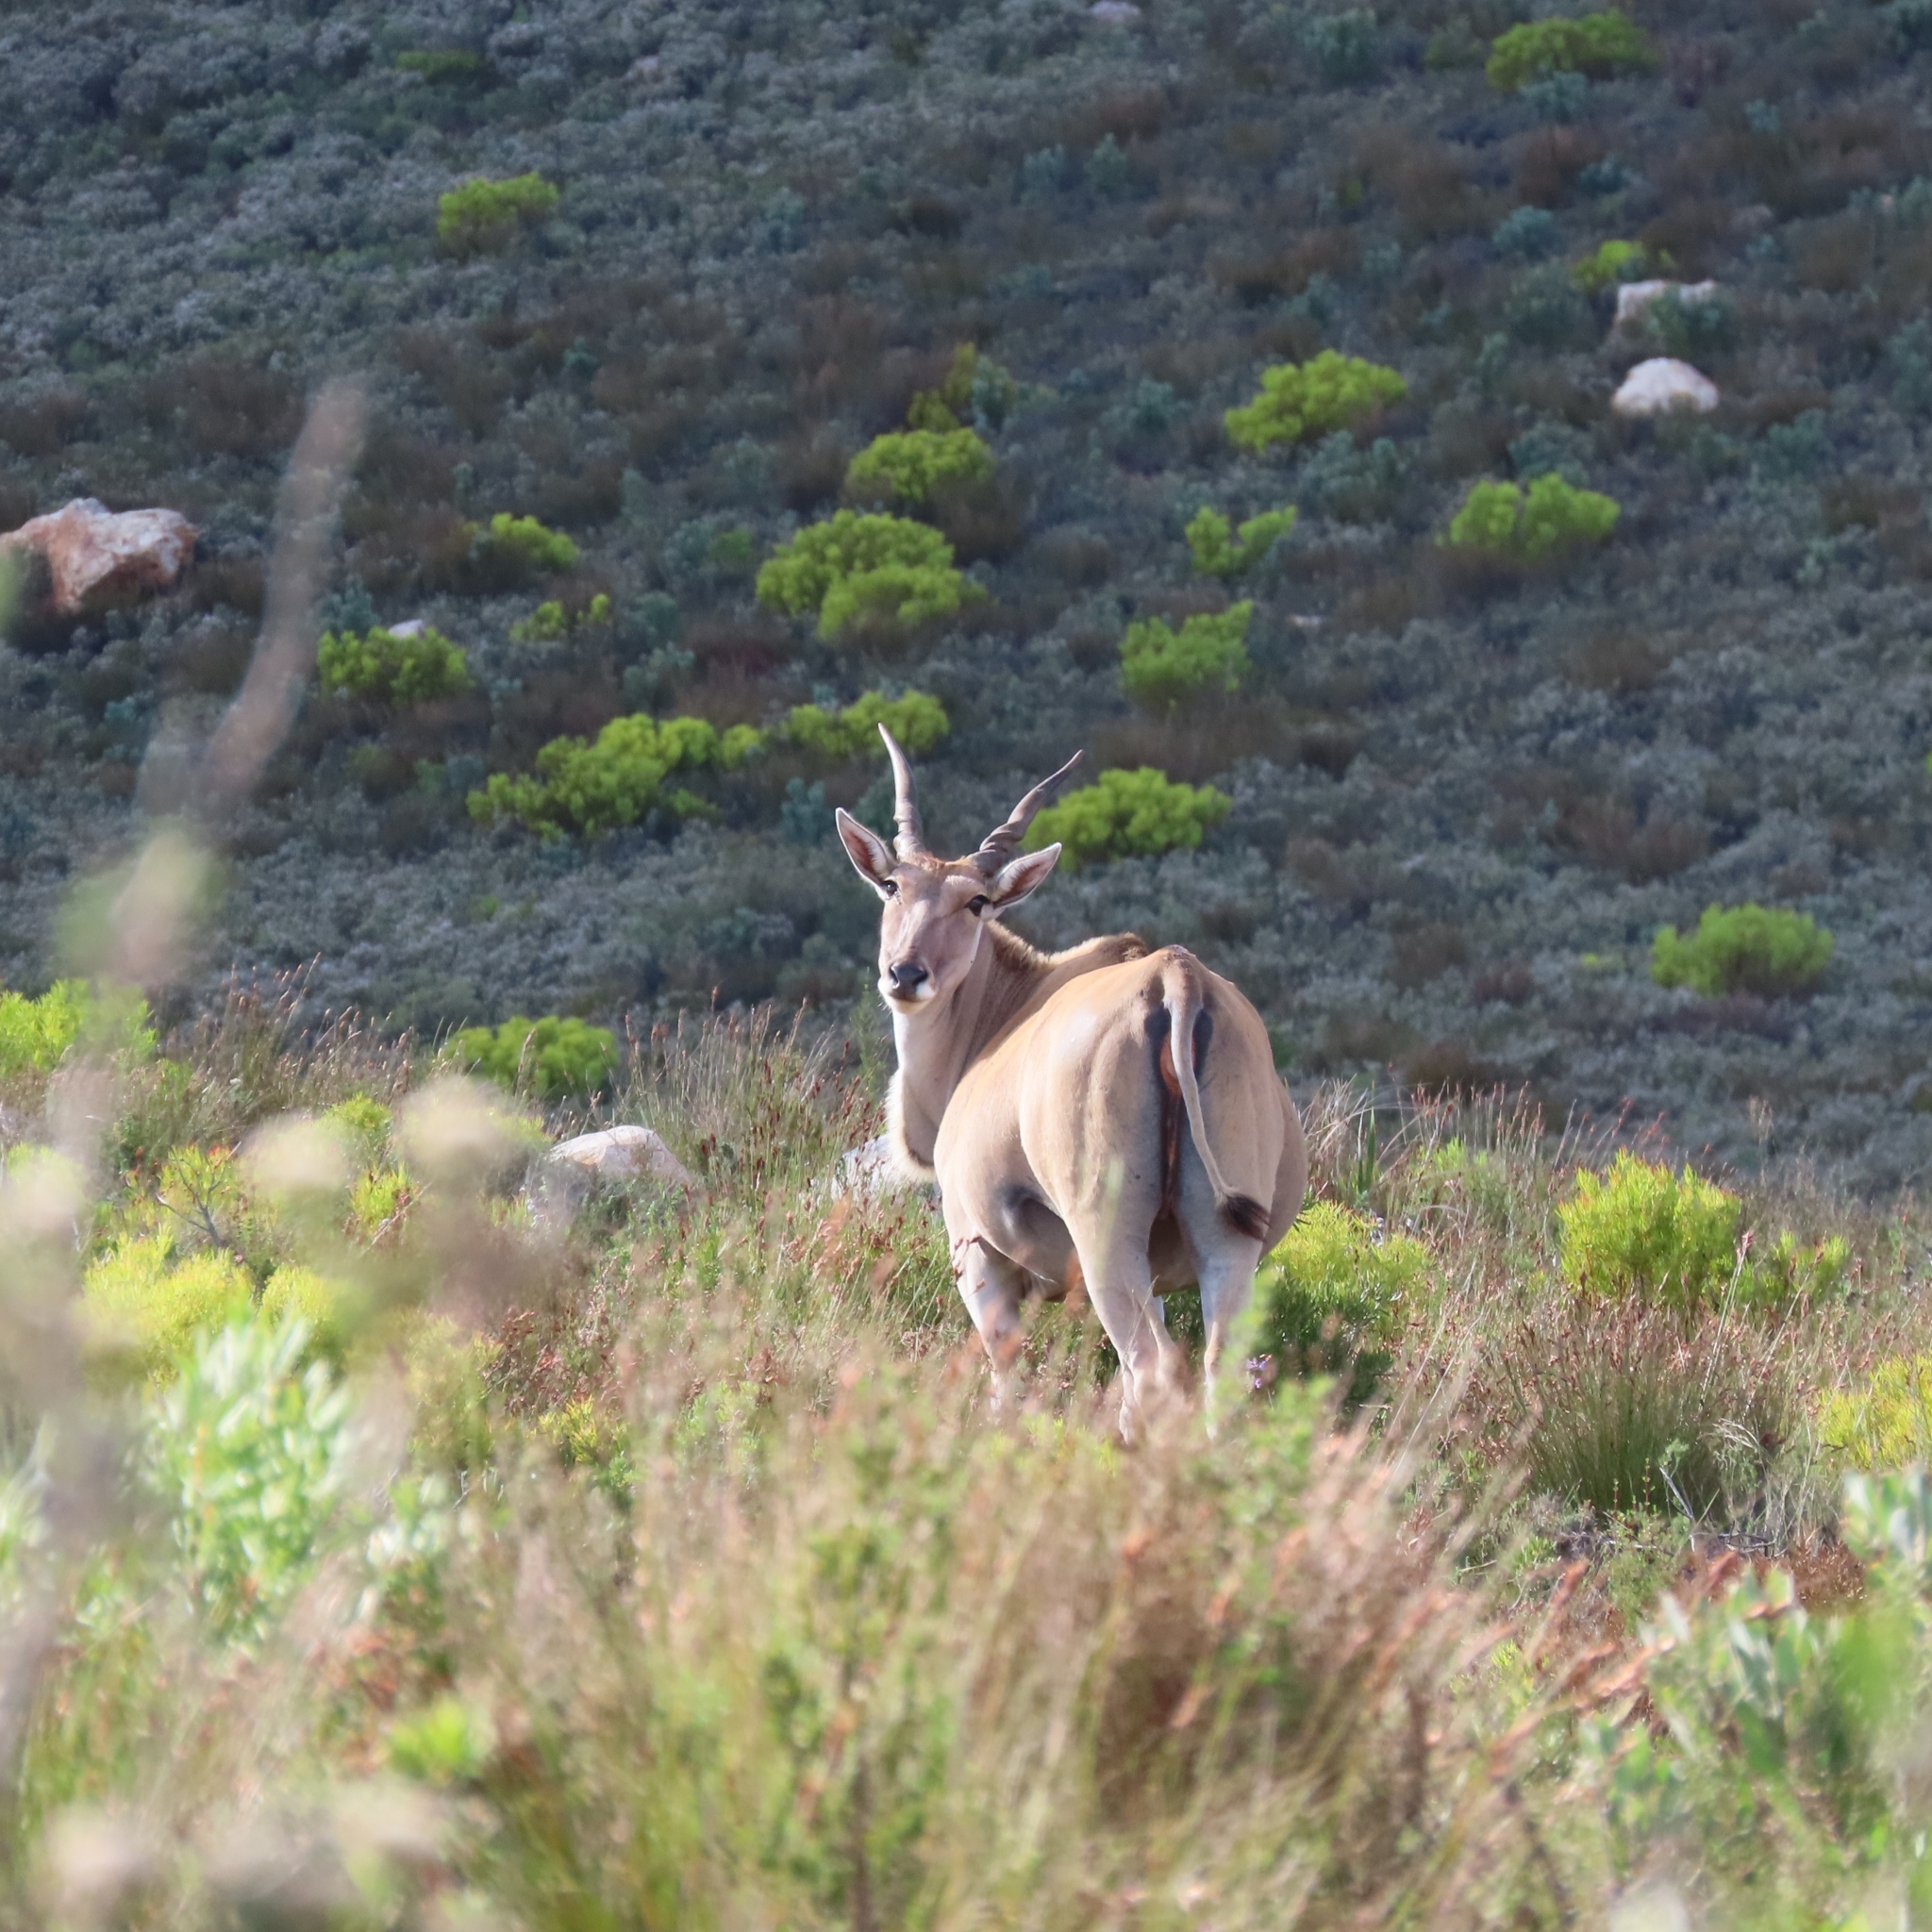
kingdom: Animalia
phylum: Chordata
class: Mammalia
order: Artiodactyla
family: Bovidae
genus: Taurotragus
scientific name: Taurotragus oryx
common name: Common eland
